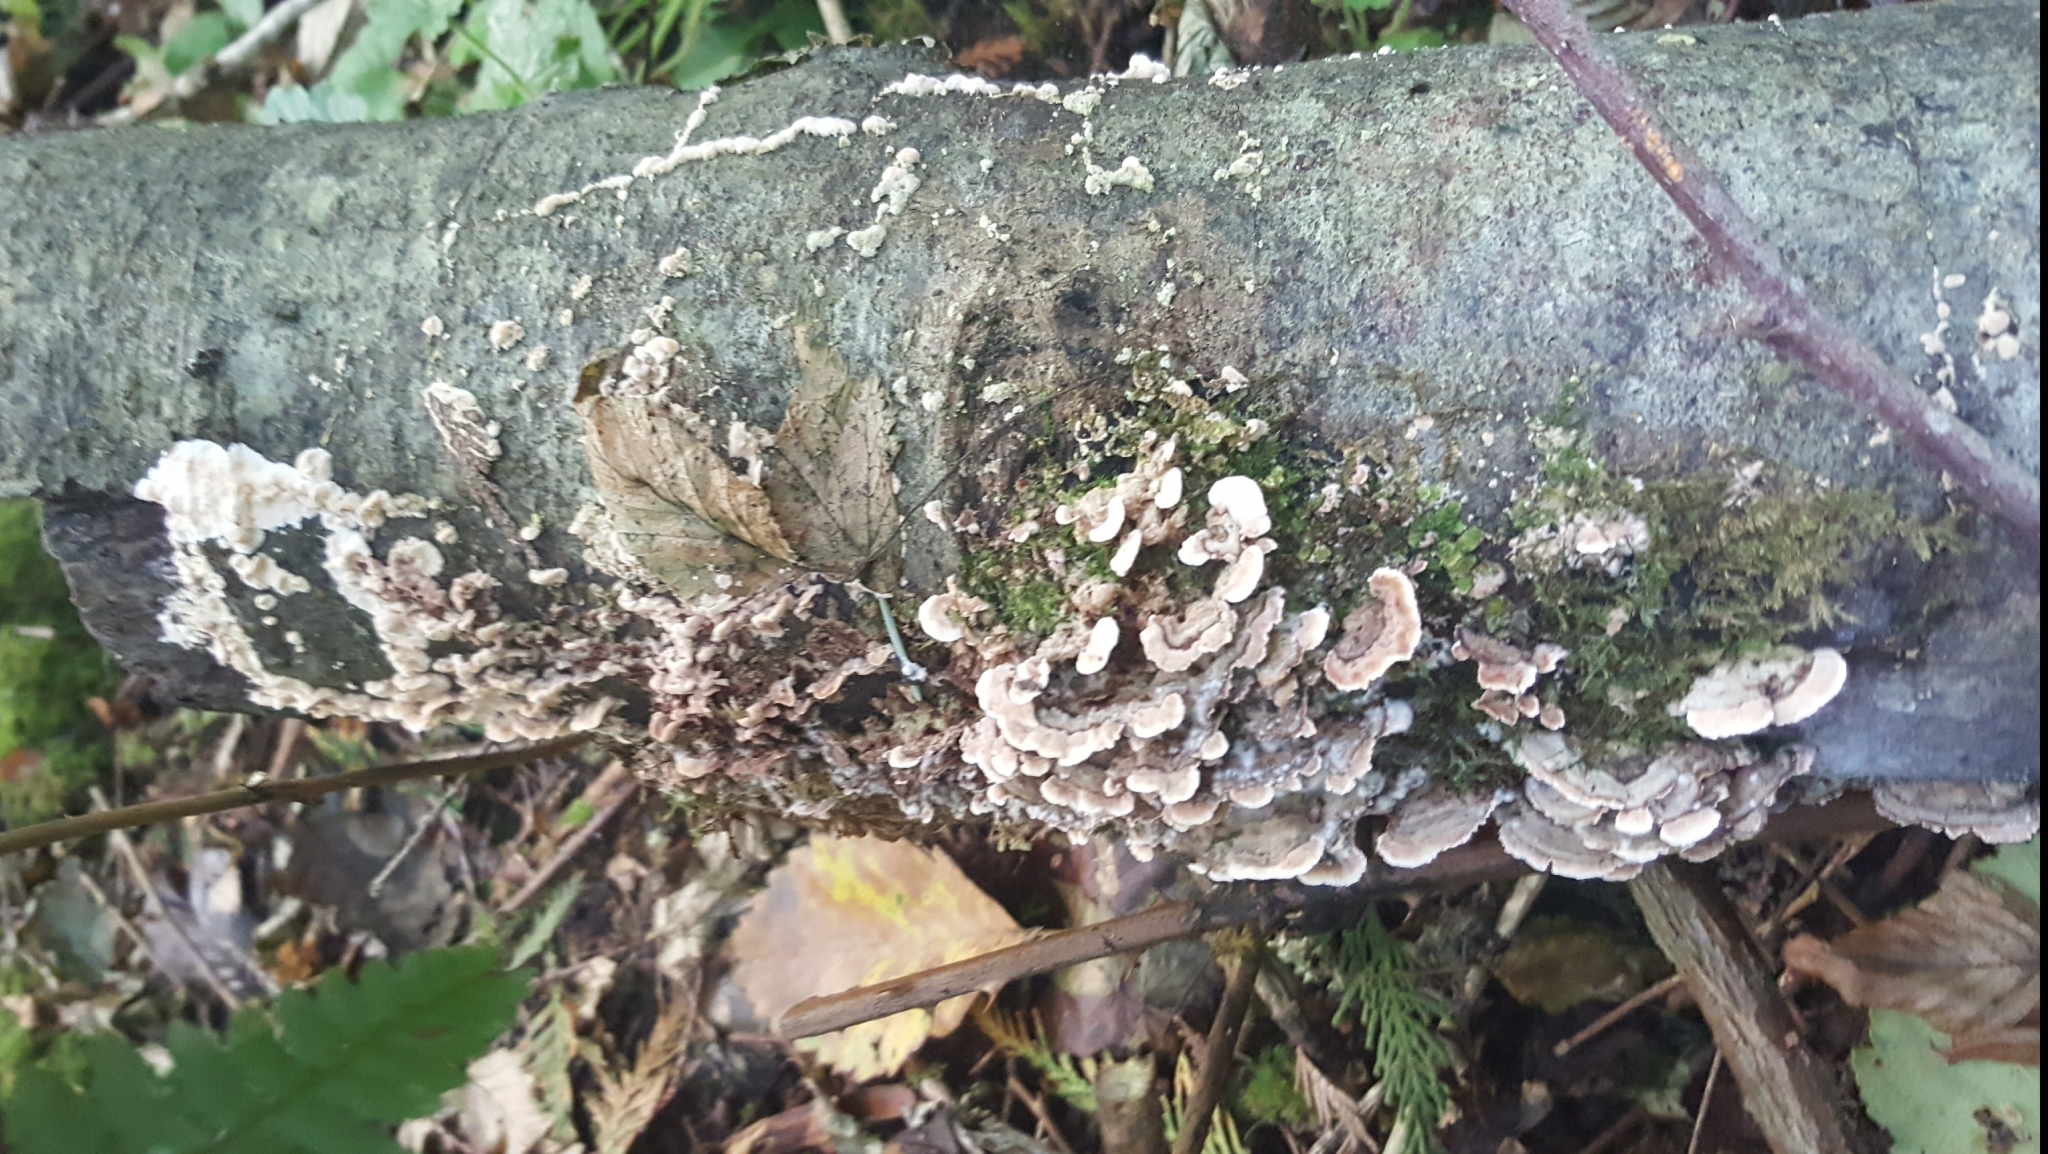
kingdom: Fungi
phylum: Basidiomycota
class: Agaricomycetes
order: Polyporales
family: Polyporaceae
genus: Trametes
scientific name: Trametes versicolor
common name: Turkeytail
